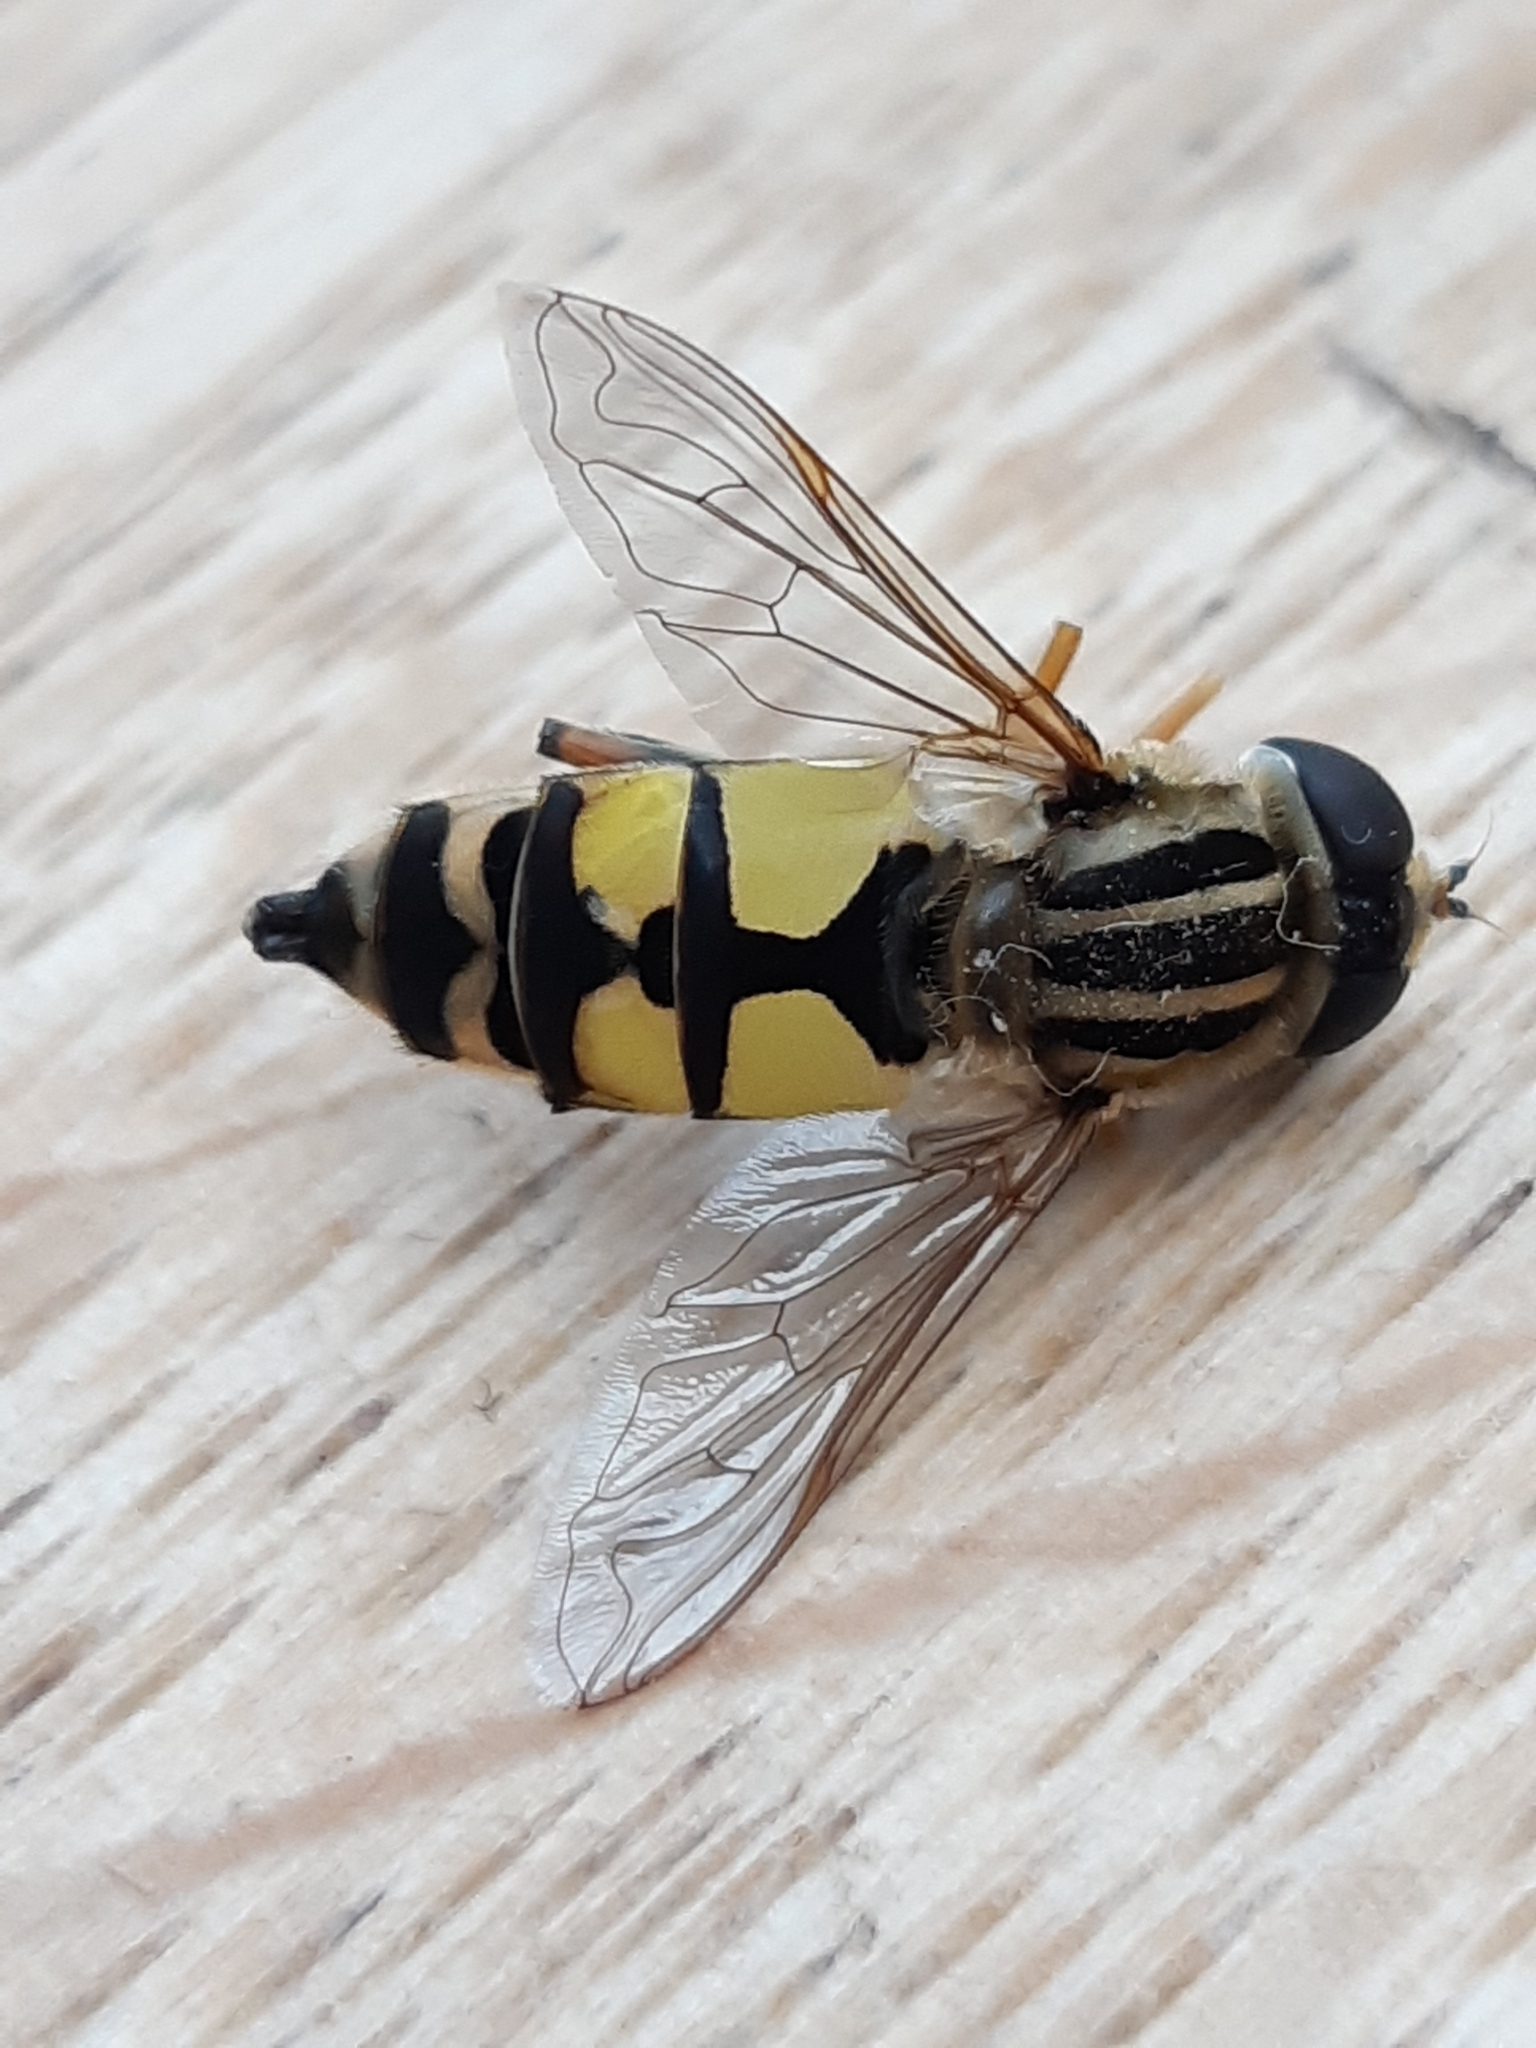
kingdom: Animalia
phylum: Arthropoda
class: Insecta
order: Diptera
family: Syrphidae
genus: Helophilus
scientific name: Helophilus trivittatus
